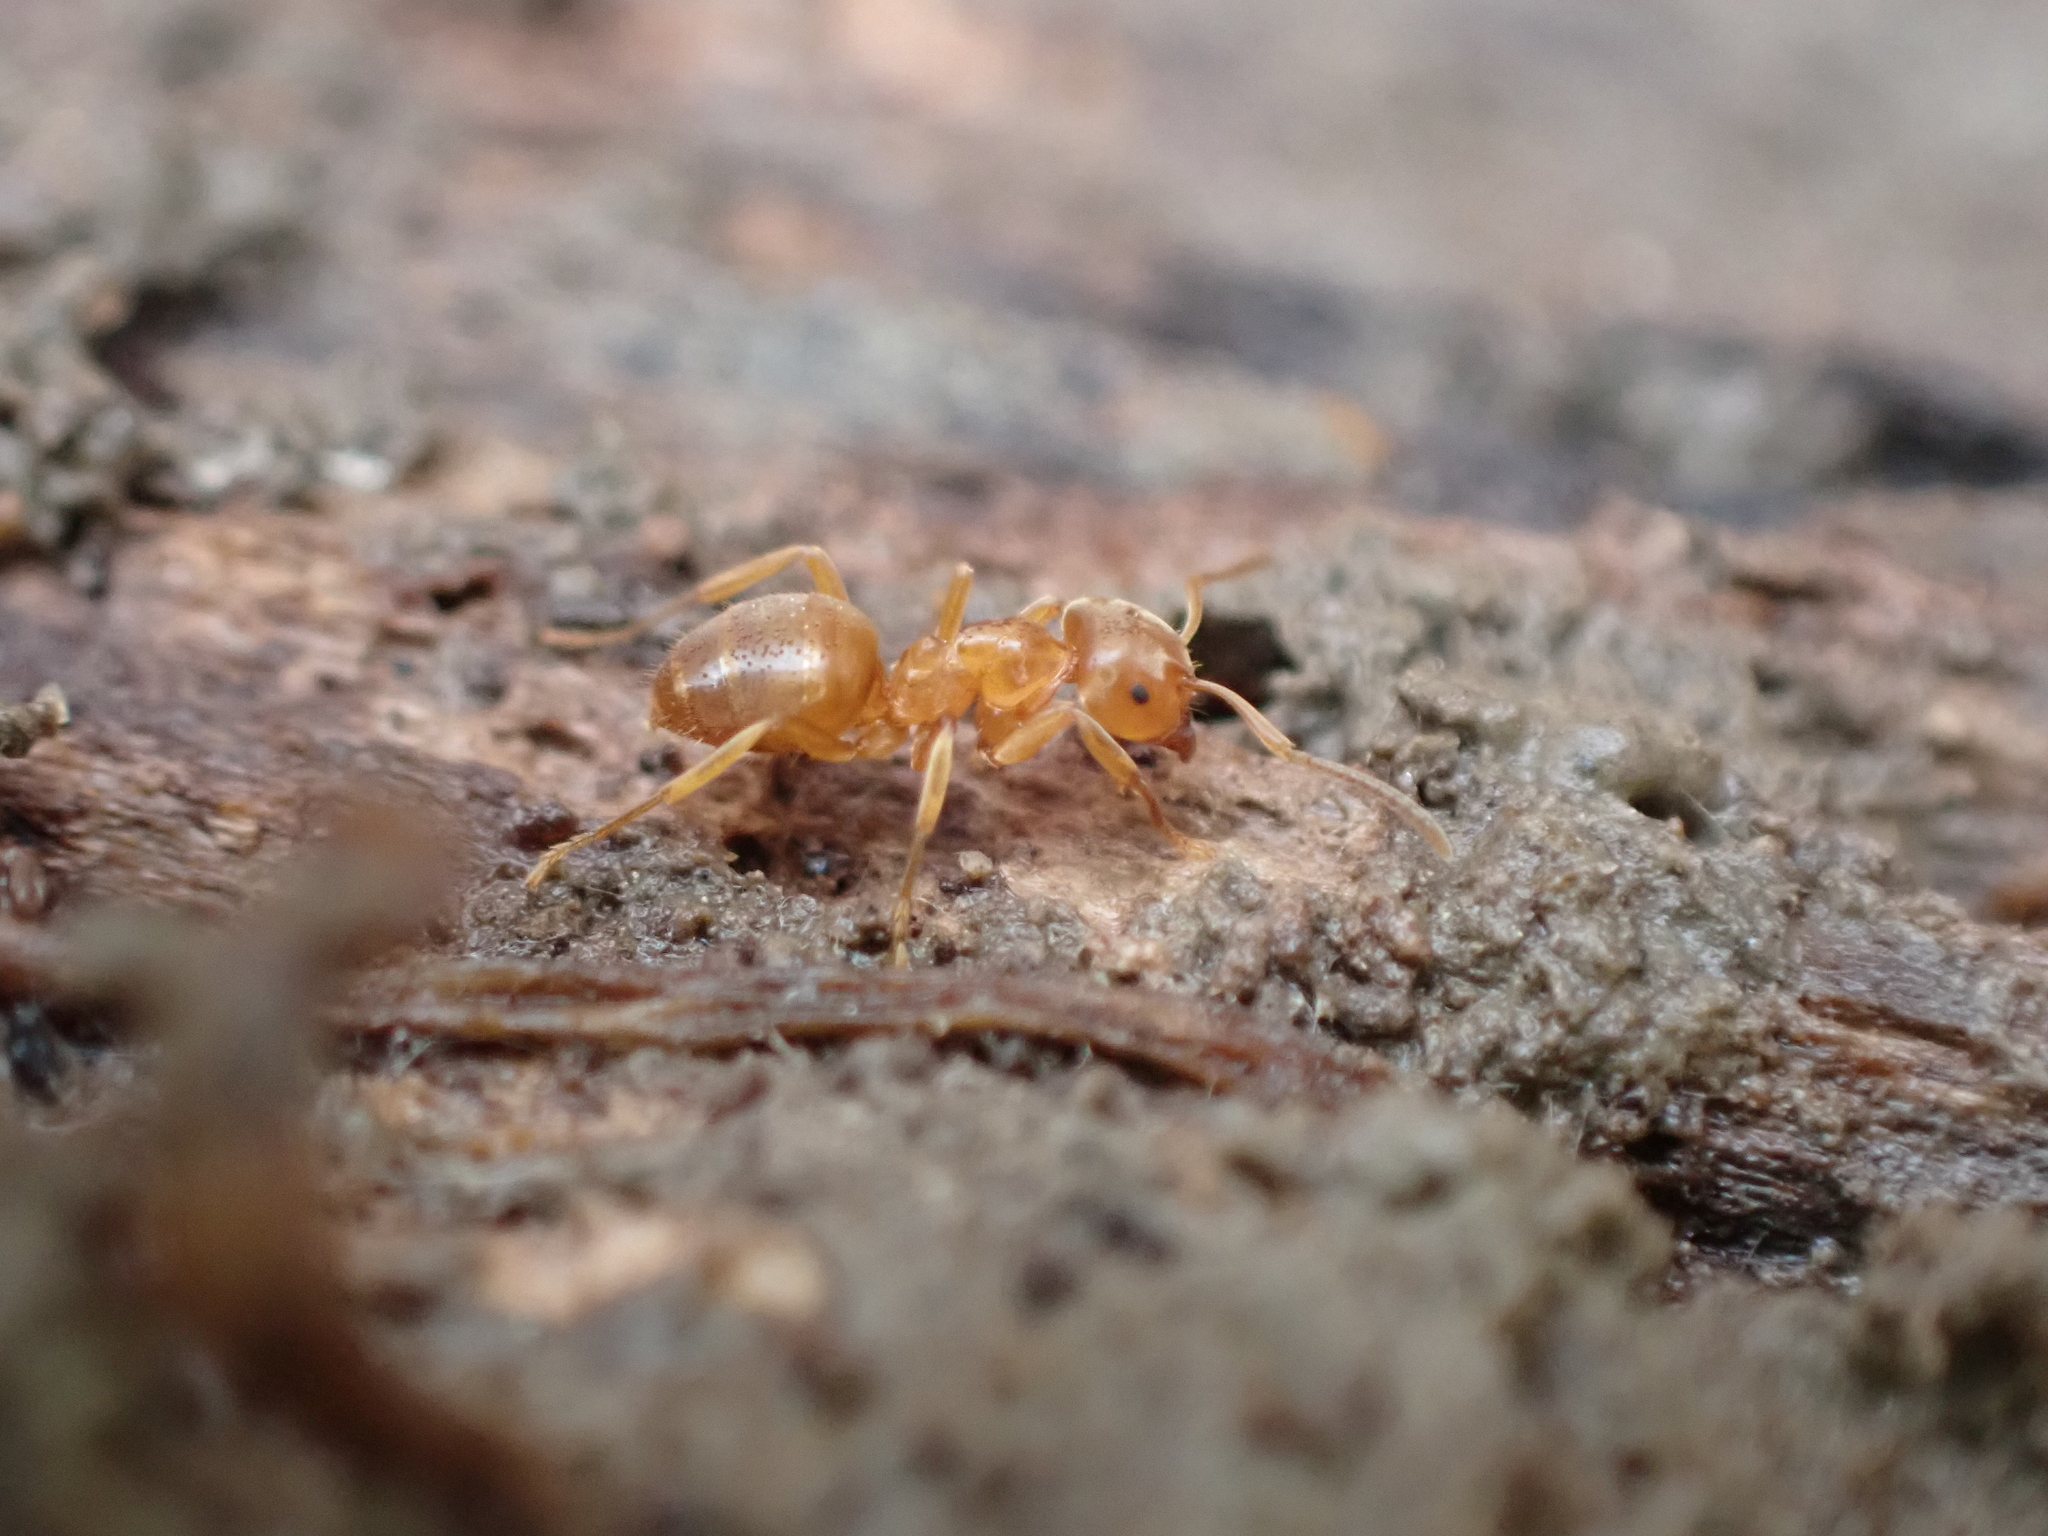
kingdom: Animalia
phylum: Arthropoda
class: Insecta
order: Hymenoptera
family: Formicidae
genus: Lasius
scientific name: Lasius claviger
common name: Common citronella ant
